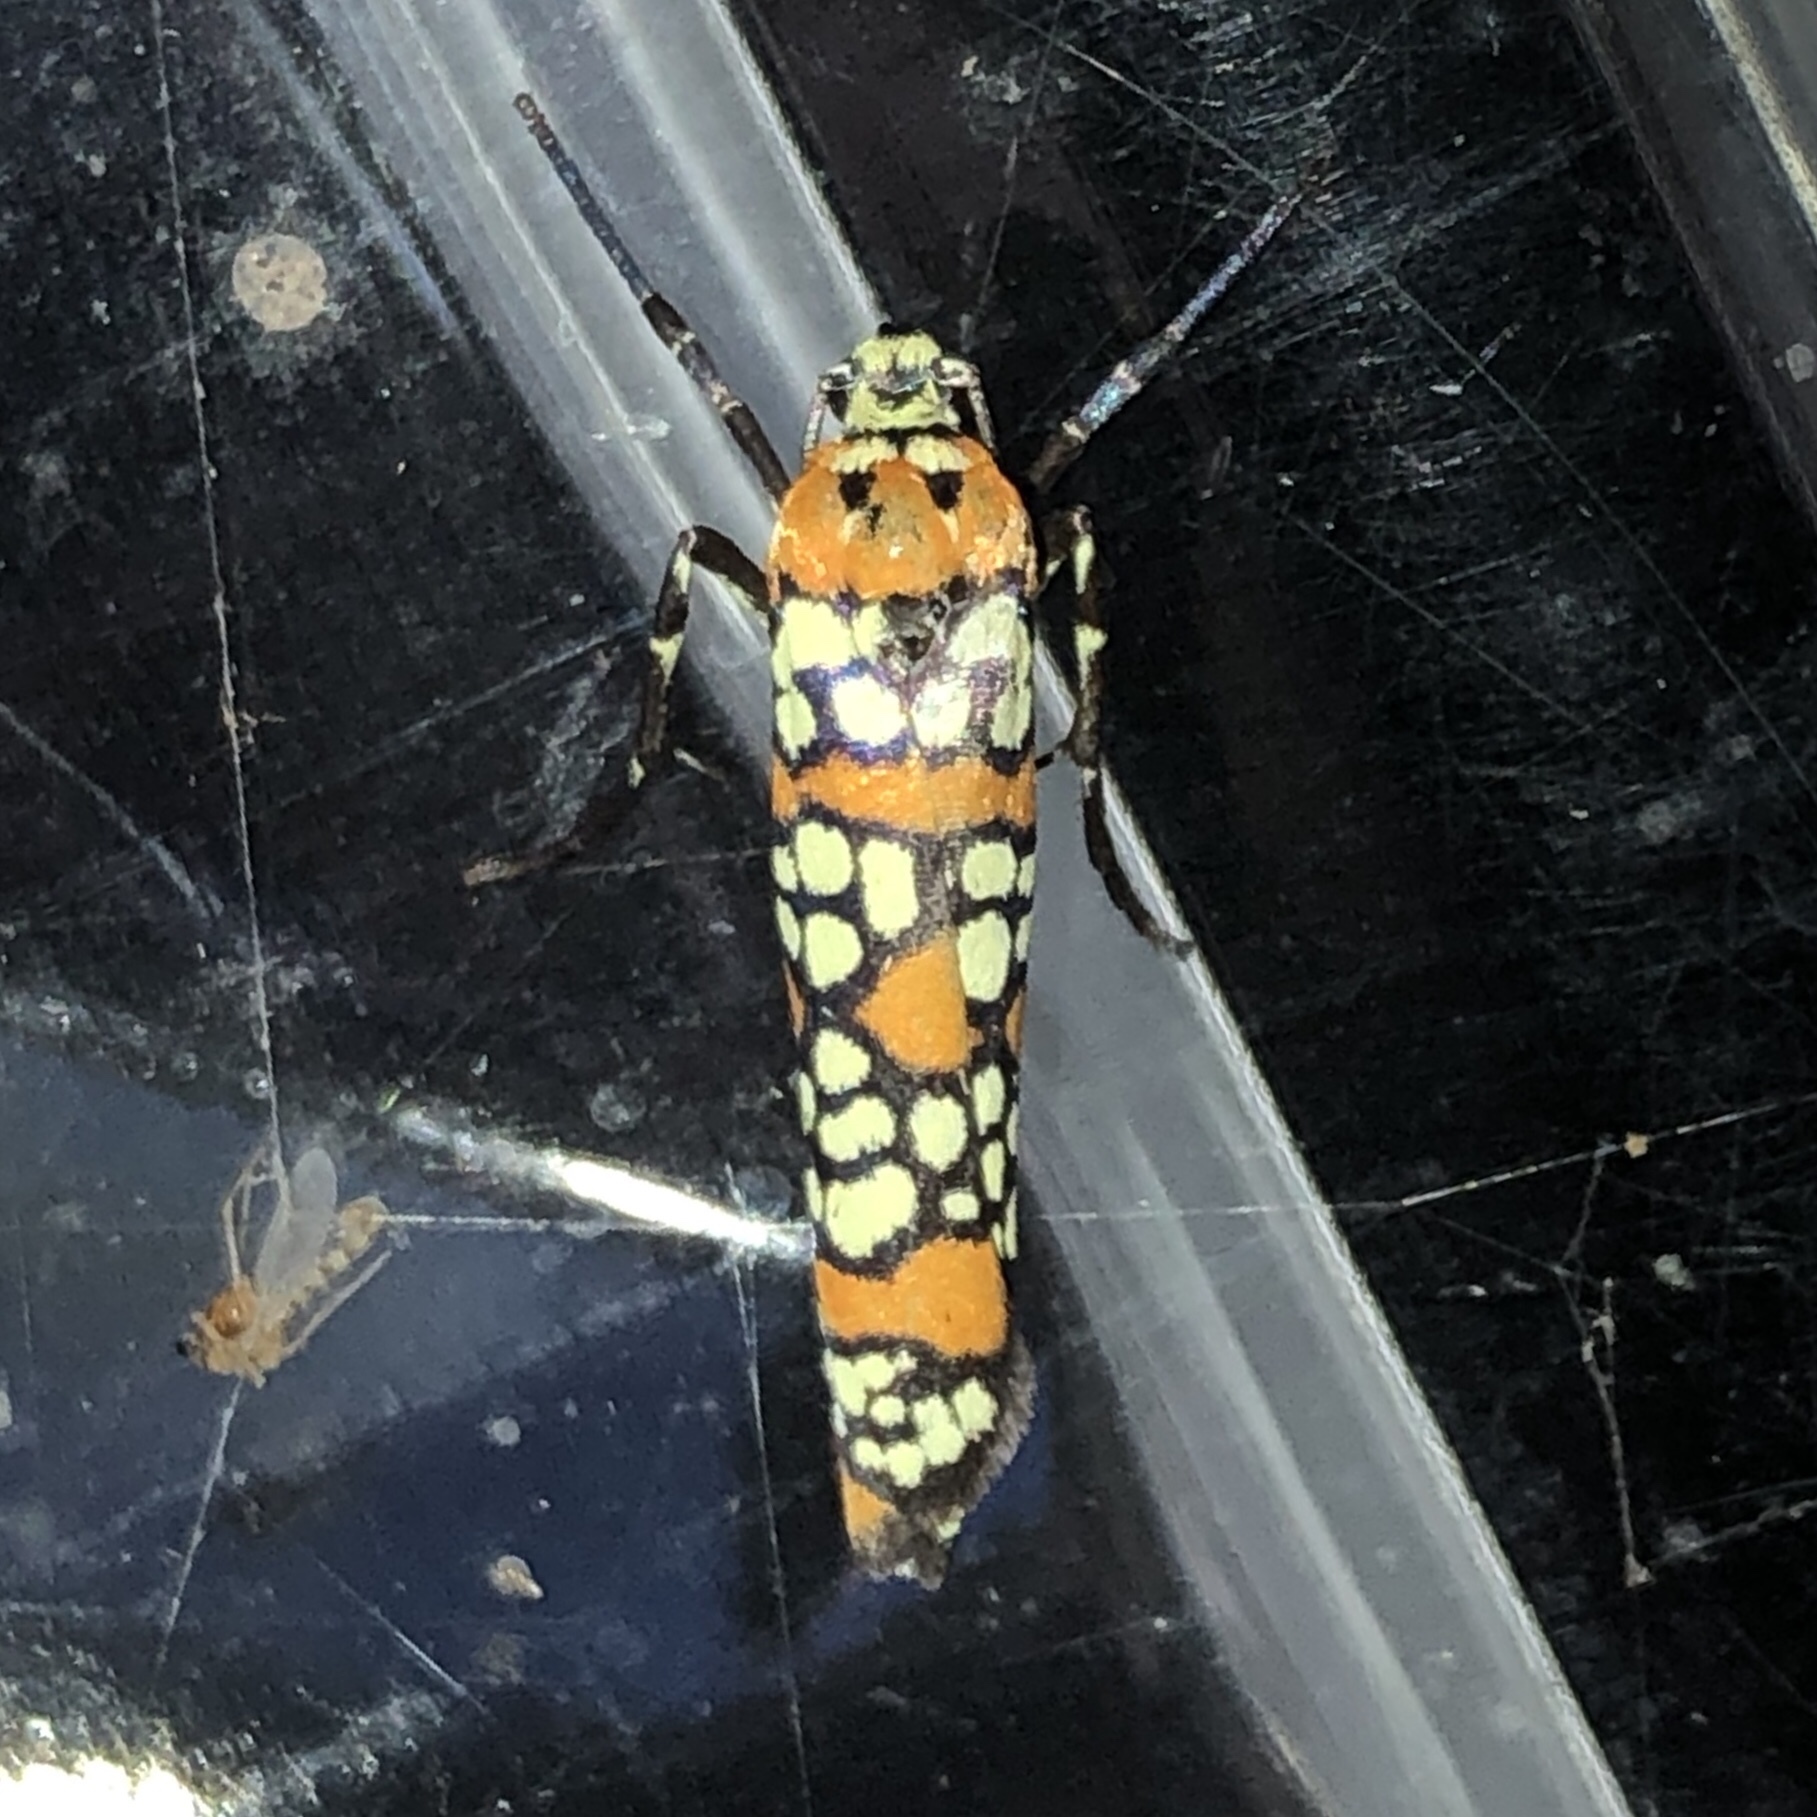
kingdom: Animalia
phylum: Arthropoda
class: Insecta
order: Lepidoptera
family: Attevidae
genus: Atteva
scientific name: Atteva punctella
